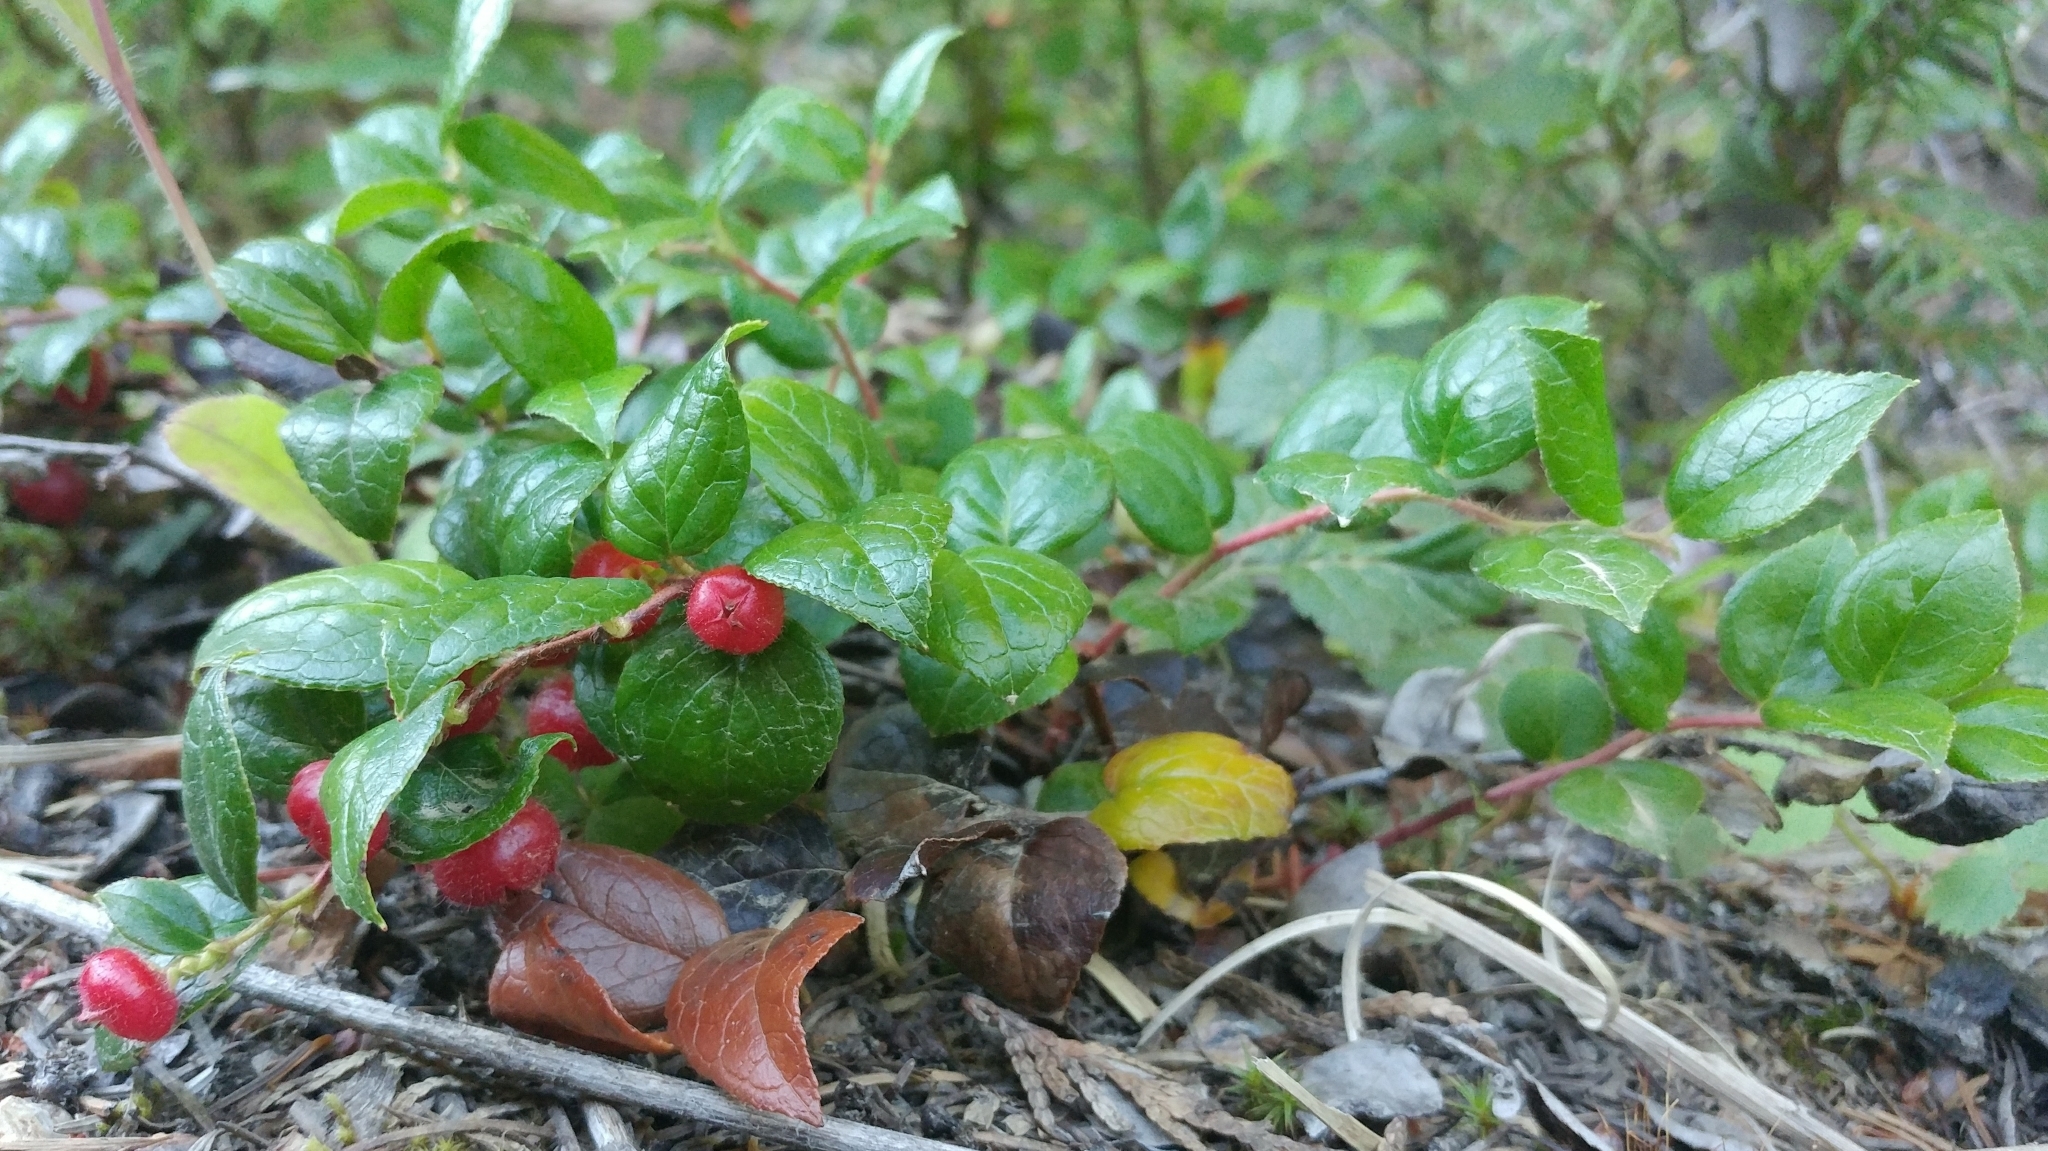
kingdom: Plantae
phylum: Tracheophyta
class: Magnoliopsida
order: Ericales
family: Ericaceae
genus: Gaultheria
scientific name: Gaultheria ovatifolia
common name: Oregon wintergreen
